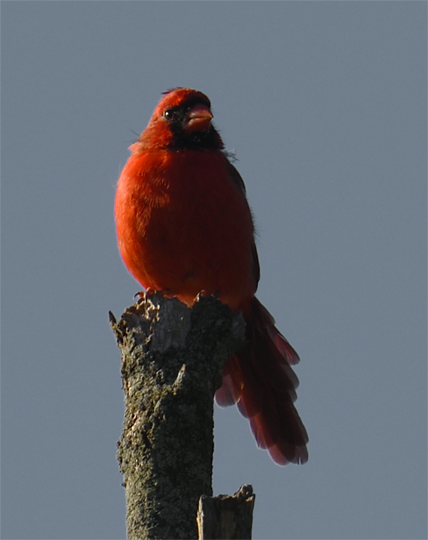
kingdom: Animalia
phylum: Chordata
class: Aves
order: Passeriformes
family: Cardinalidae
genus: Cardinalis
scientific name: Cardinalis cardinalis
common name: Northern cardinal
